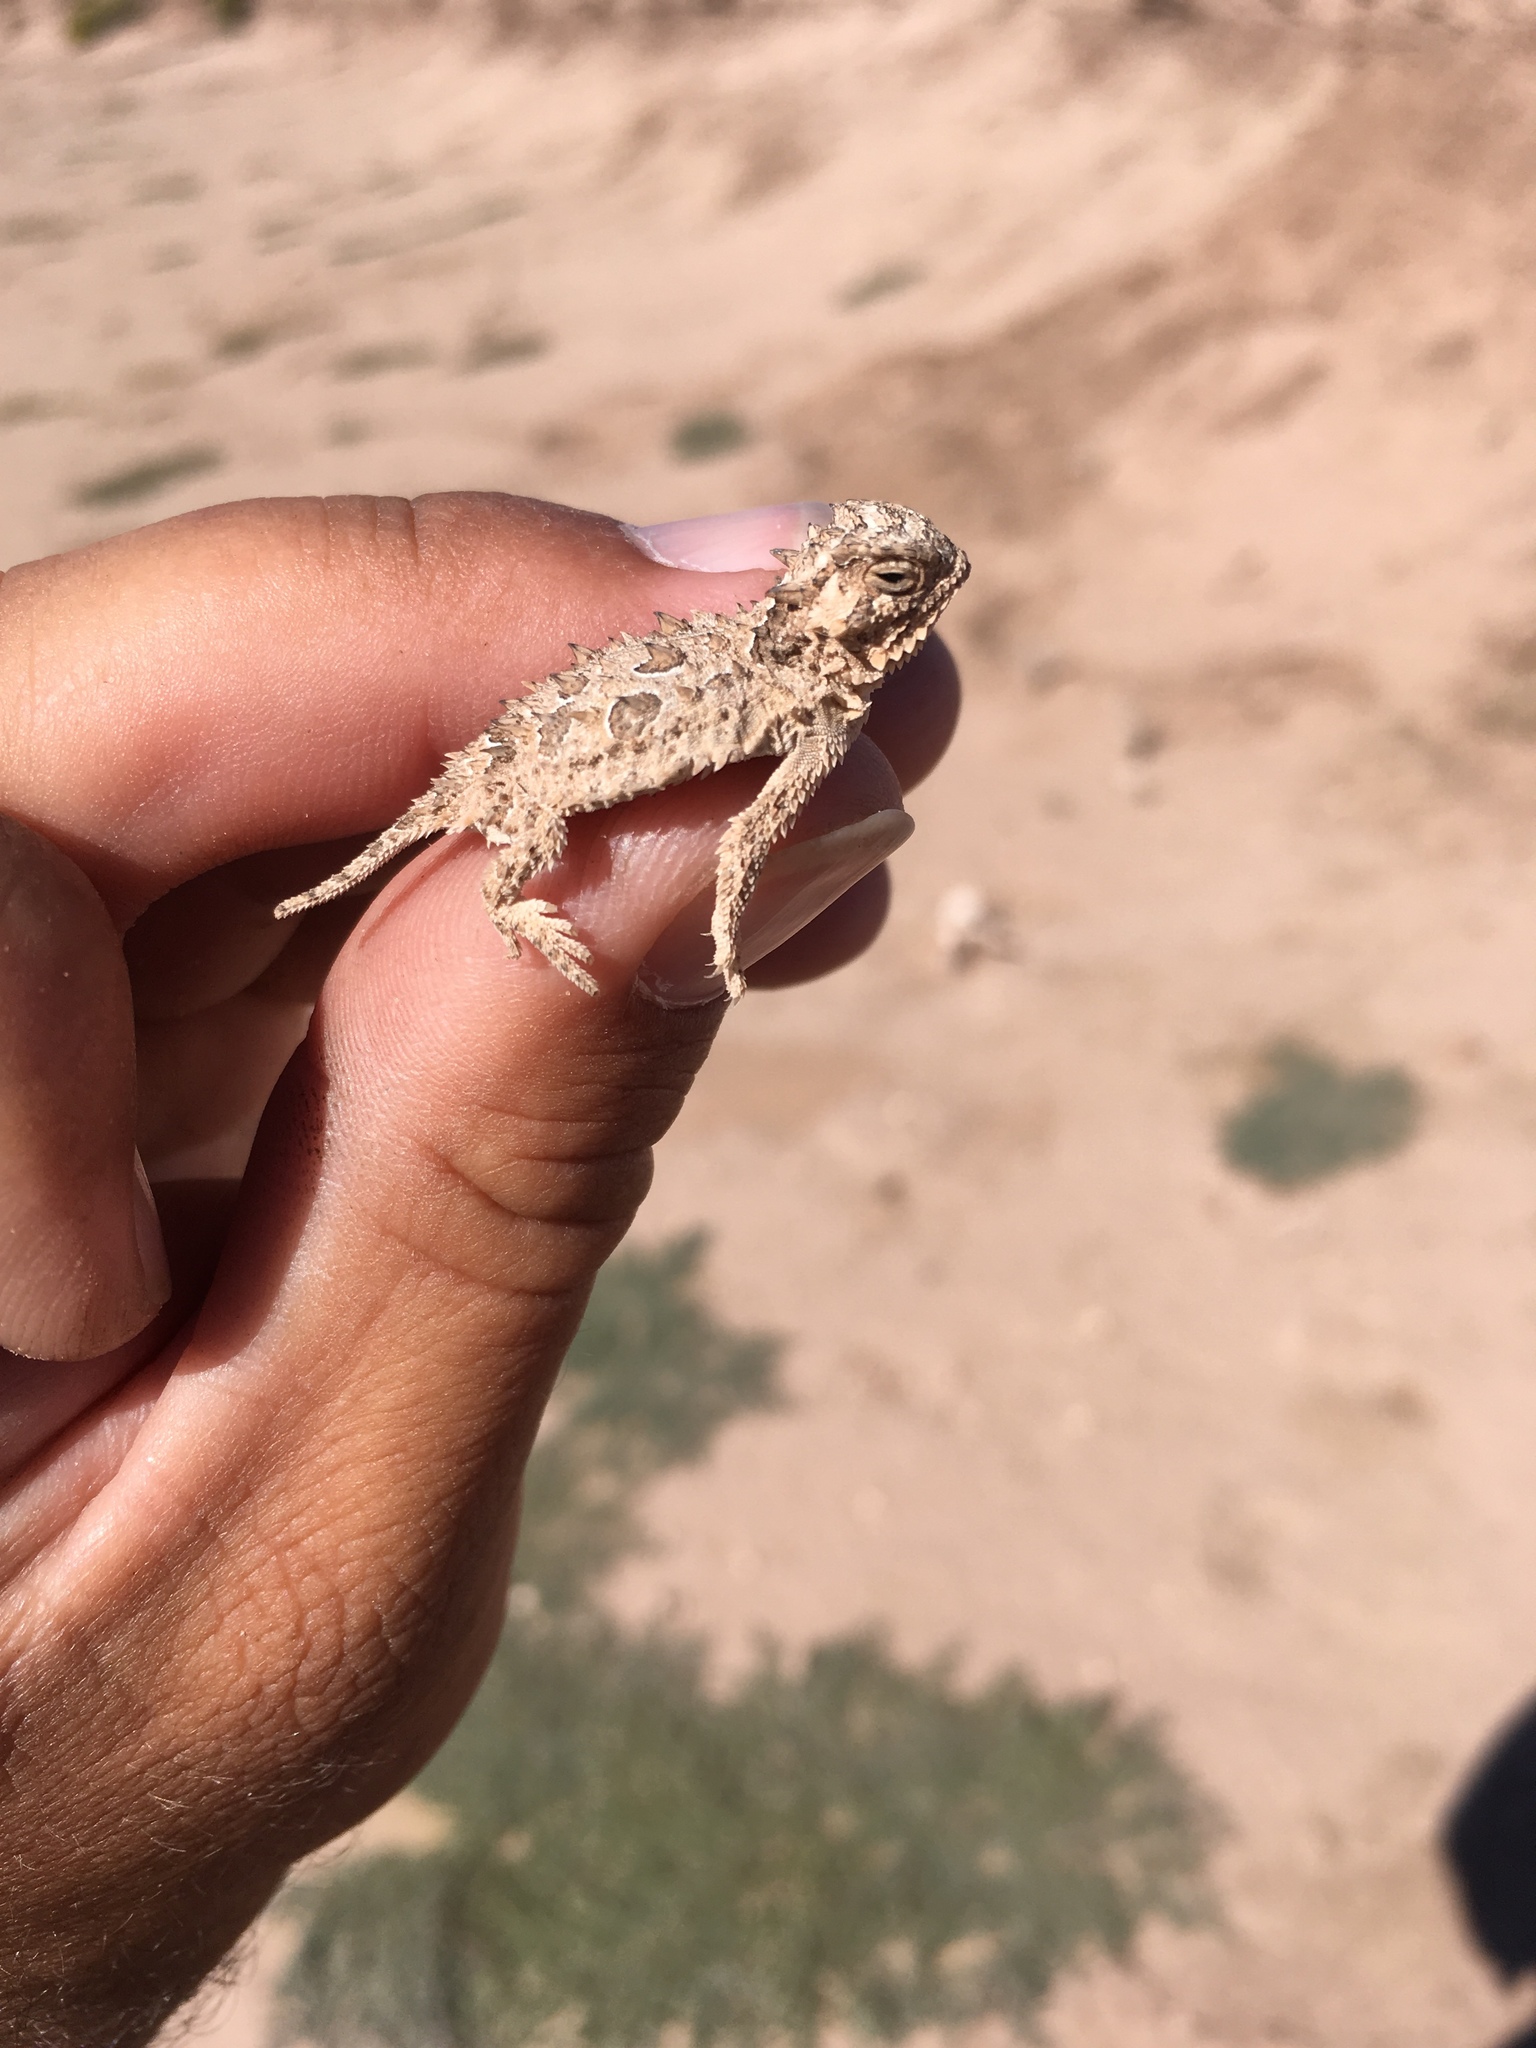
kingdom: Animalia
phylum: Chordata
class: Squamata
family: Phrynosomatidae
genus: Phrynosoma
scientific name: Phrynosoma cornutum
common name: Texas horned lizard
